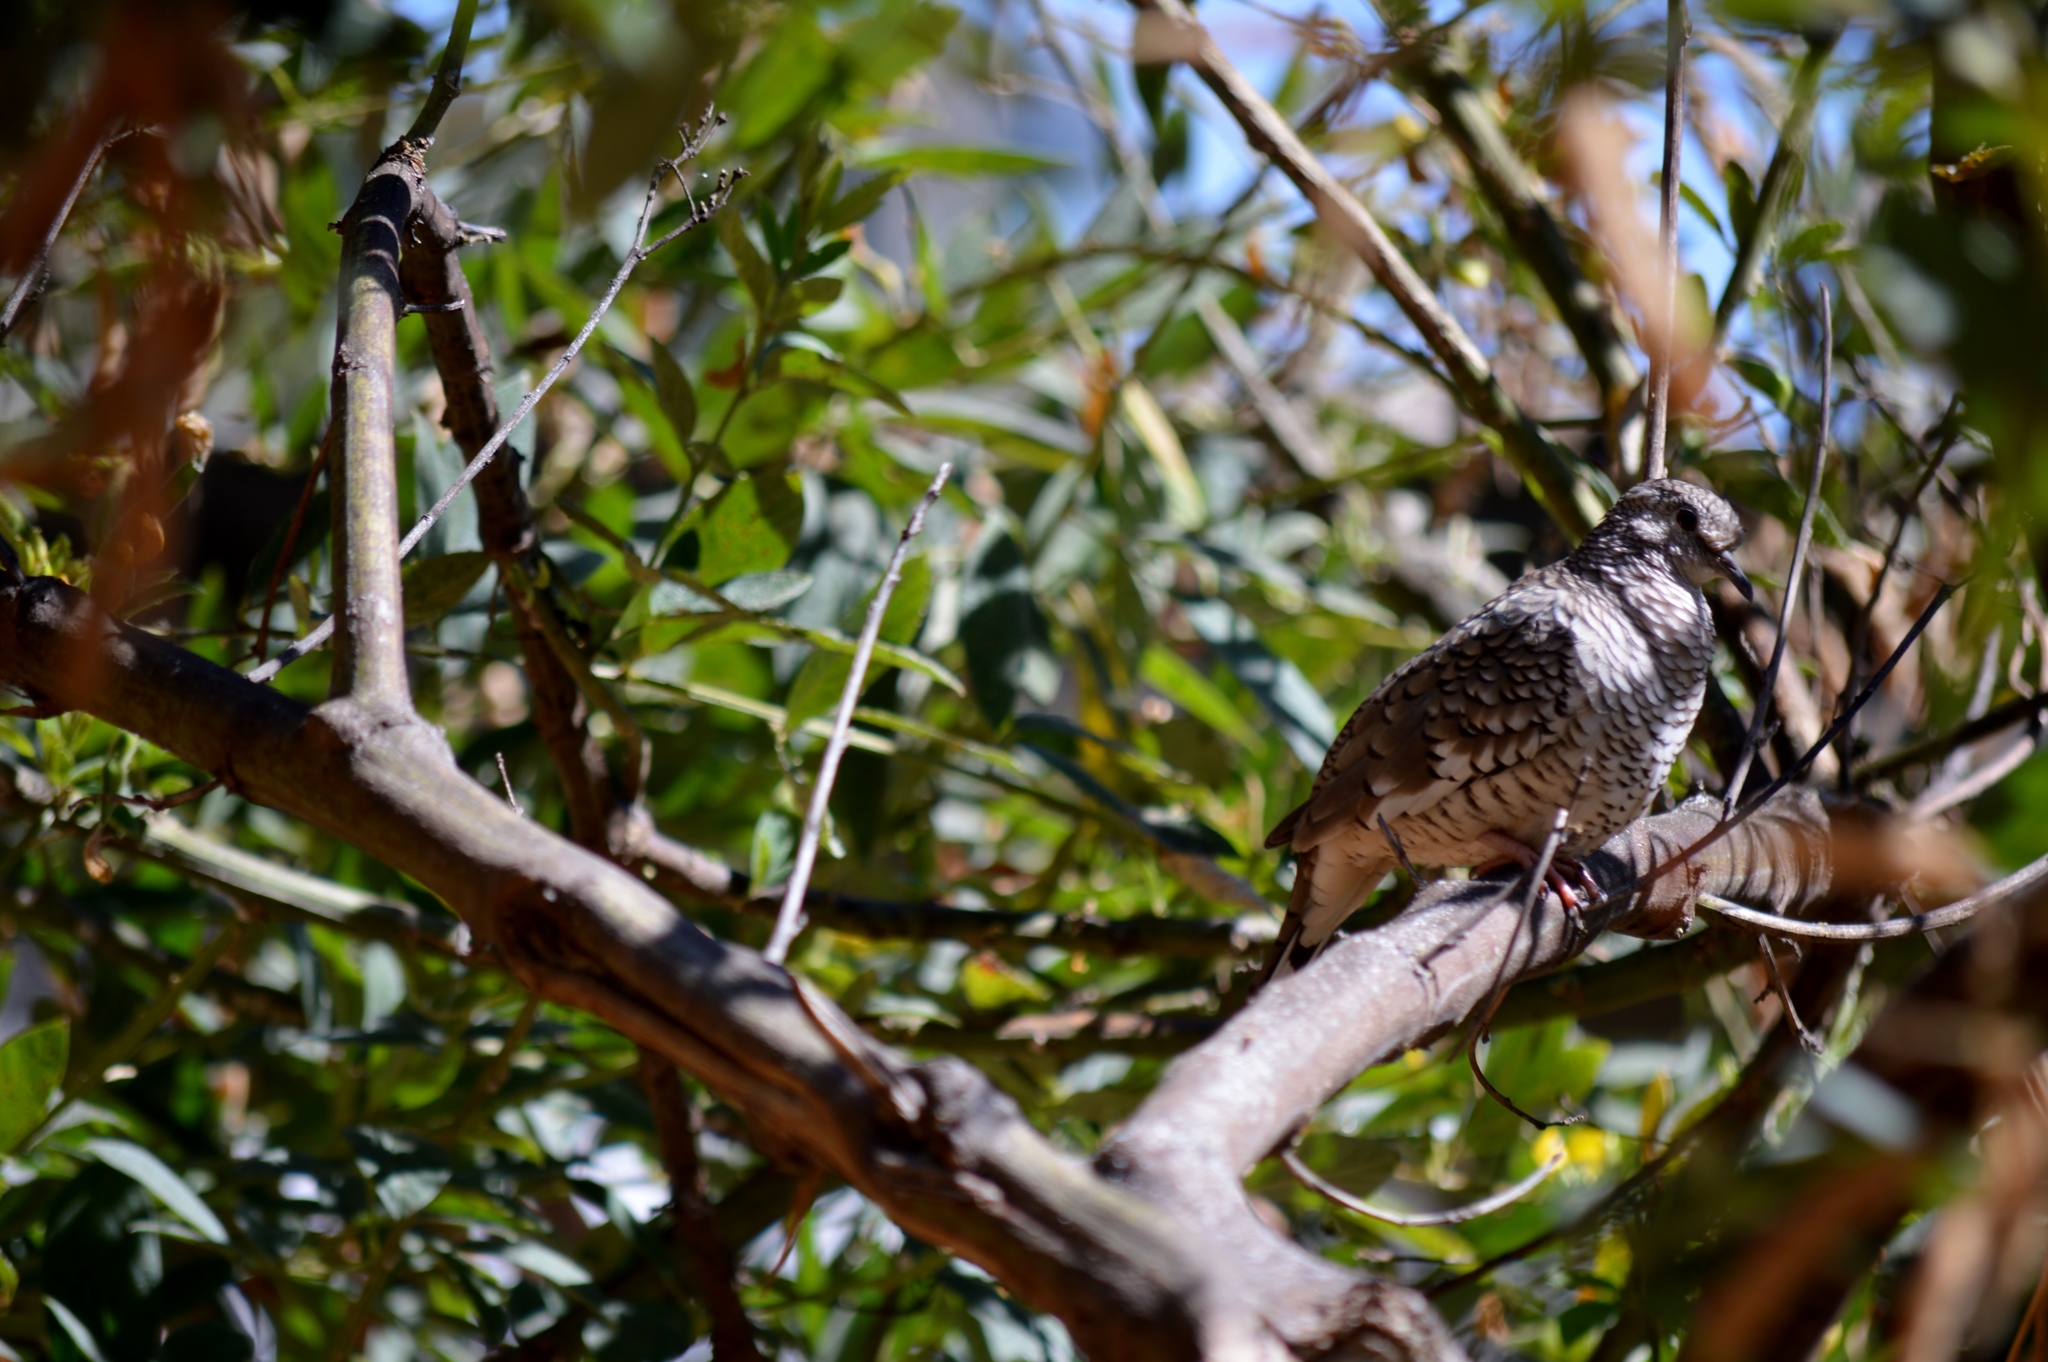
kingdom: Animalia
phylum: Chordata
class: Aves
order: Columbiformes
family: Columbidae
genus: Columbina
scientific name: Columbina squammata
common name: Scaled dove
